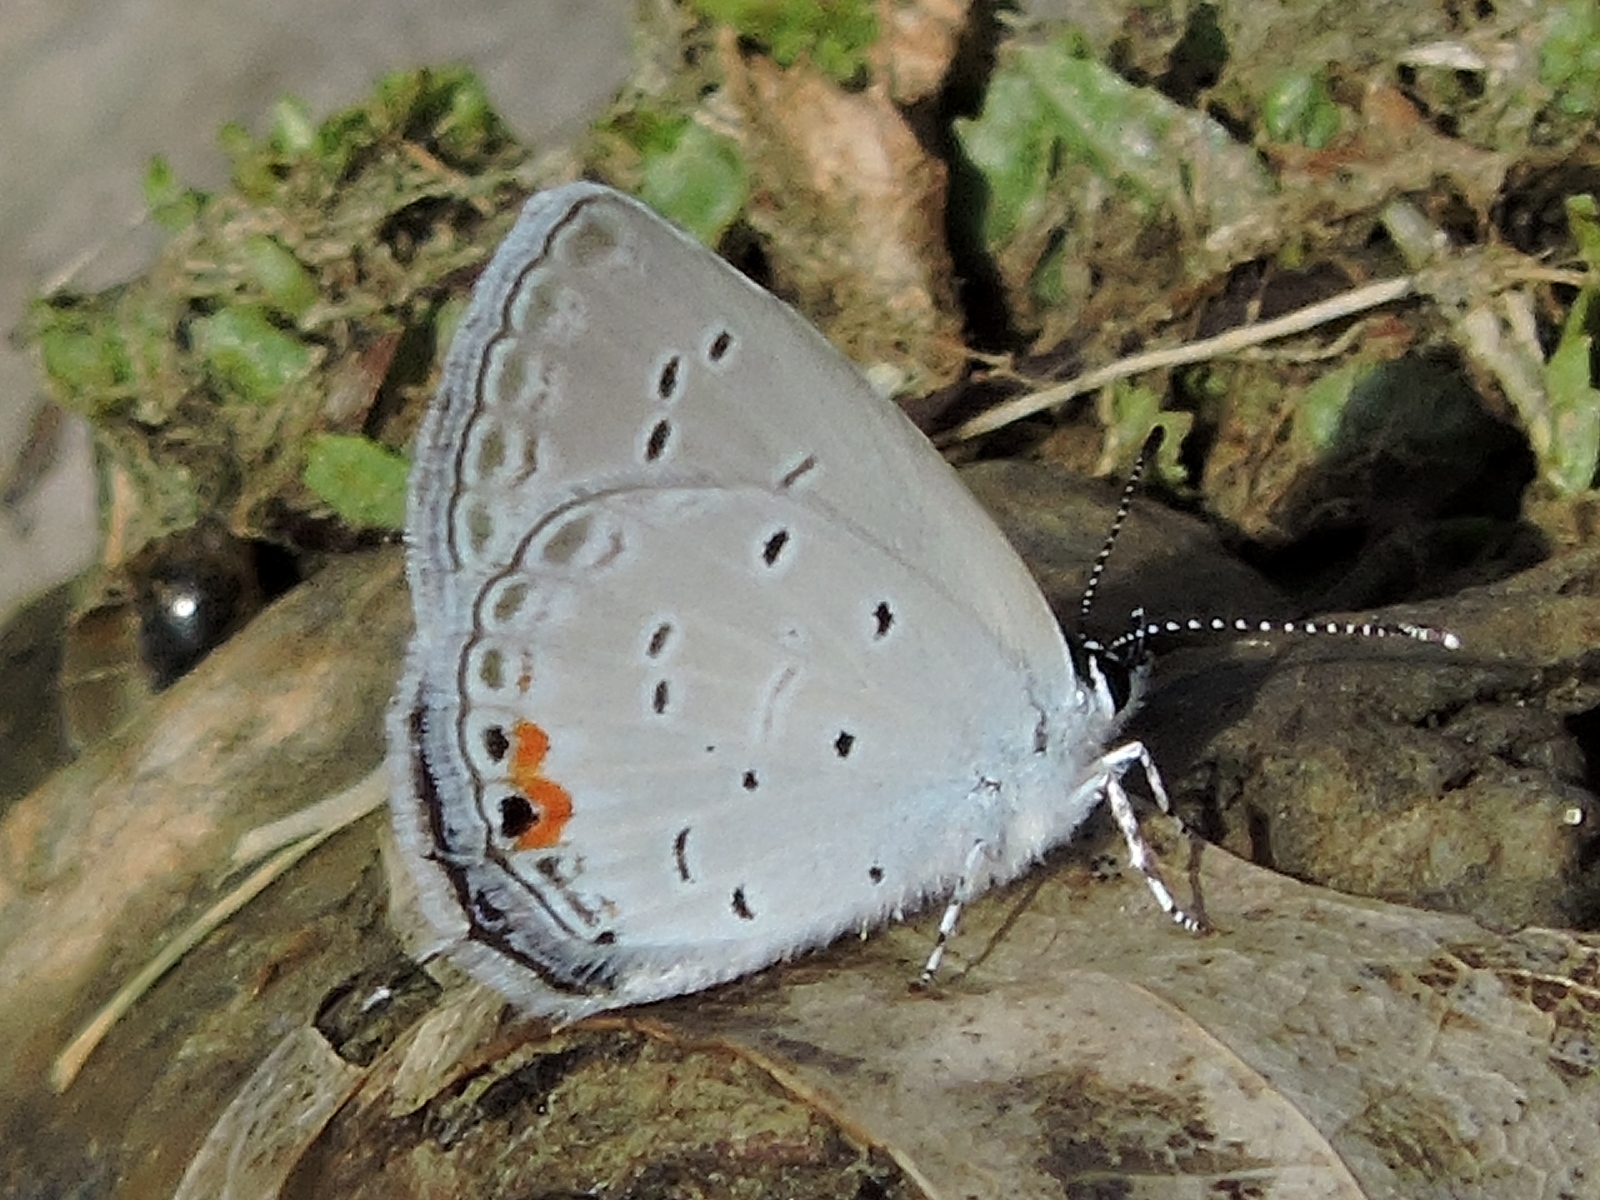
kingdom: Animalia
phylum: Arthropoda
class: Insecta
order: Lepidoptera
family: Lycaenidae
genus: Elkalyce
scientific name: Elkalyce comyntas
